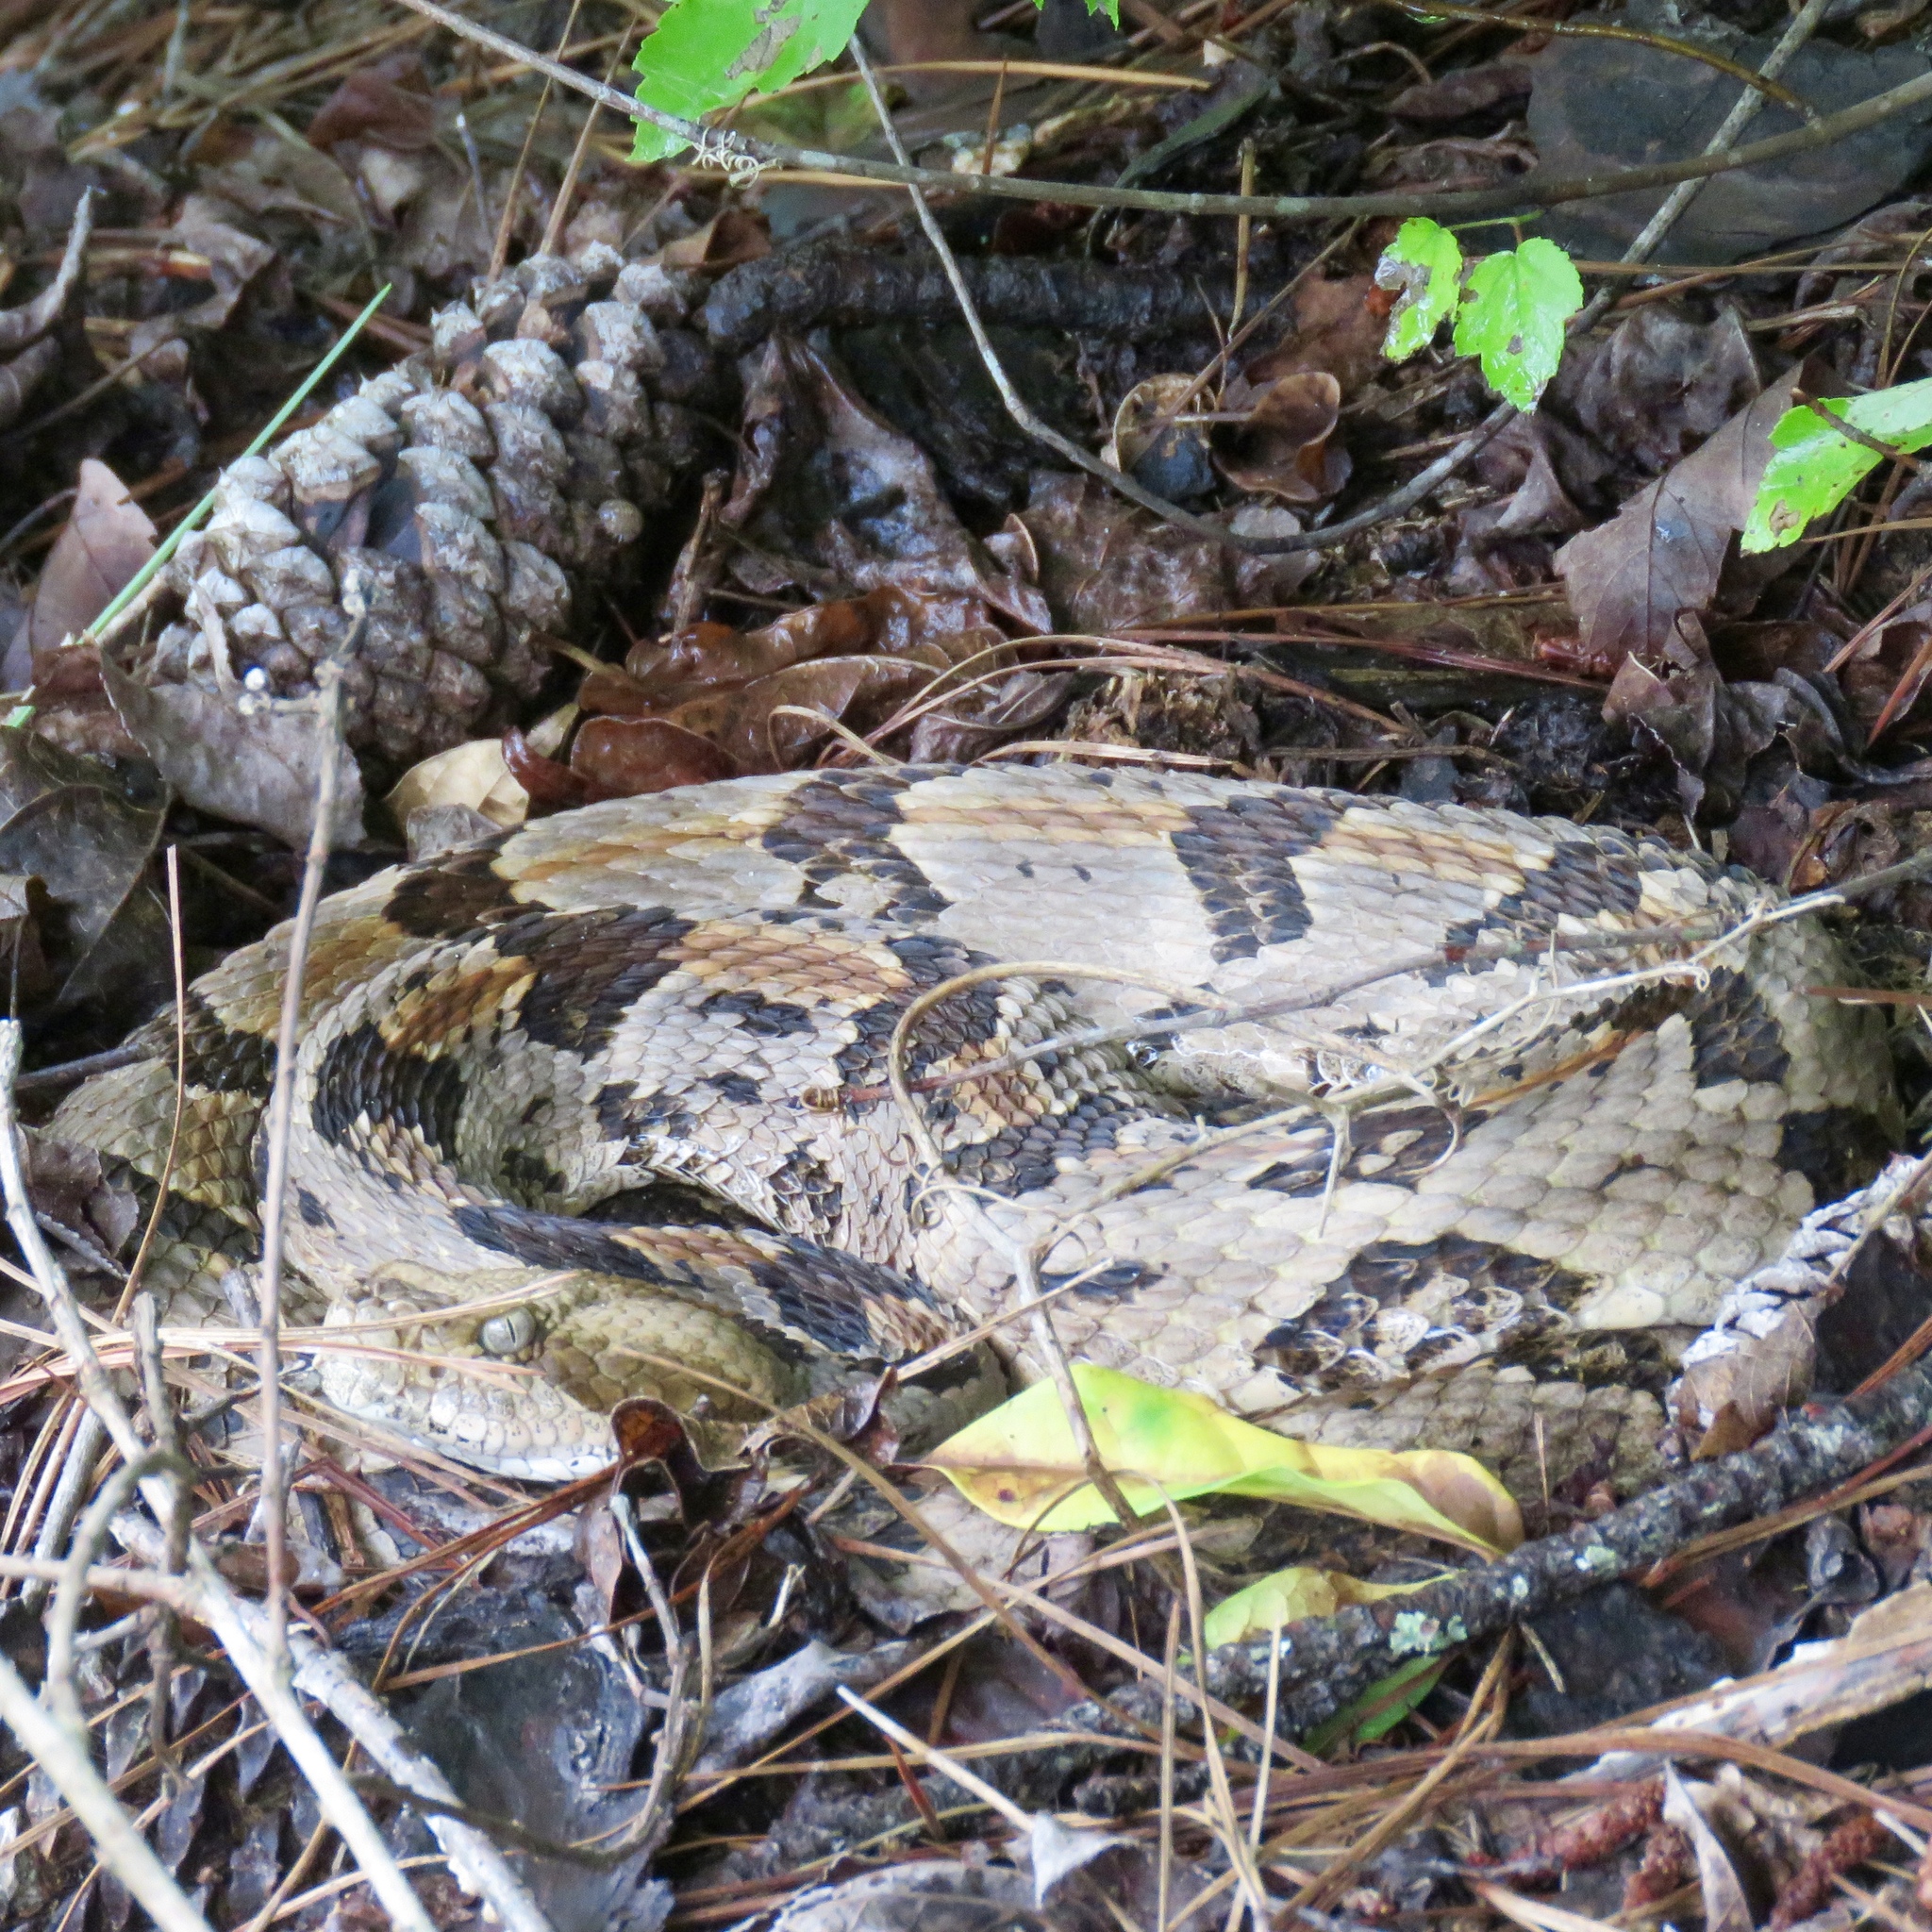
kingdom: Animalia
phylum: Chordata
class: Squamata
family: Viperidae
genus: Crotalus
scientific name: Crotalus horridus
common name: Timber rattlesnake
